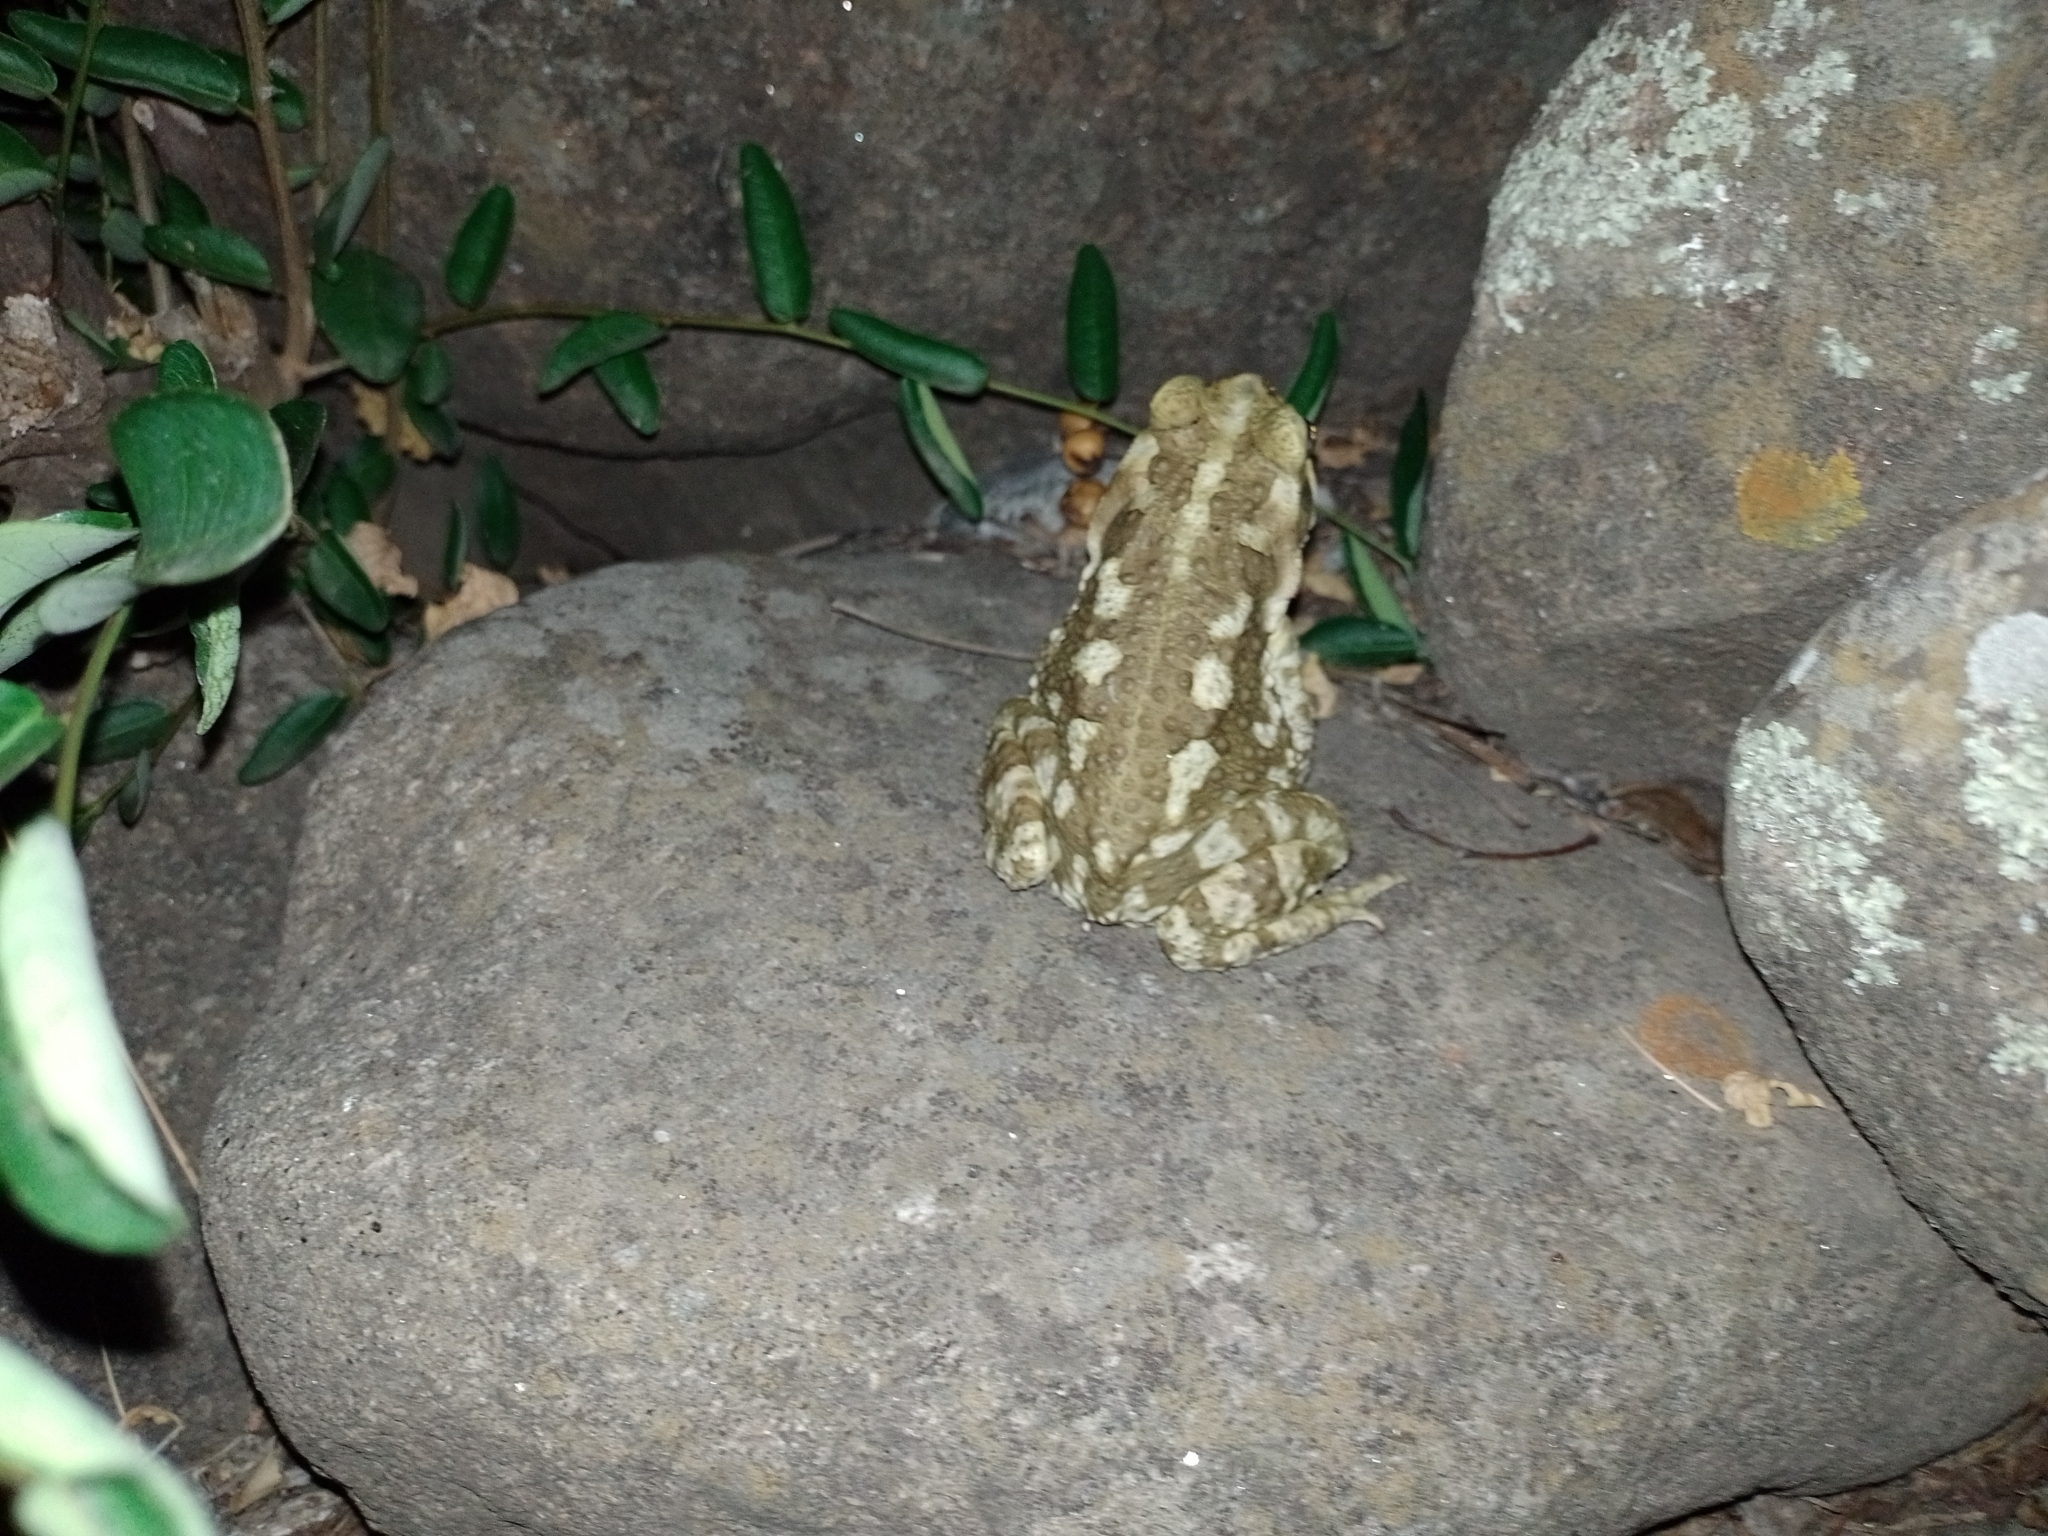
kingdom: Animalia
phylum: Chordata
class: Amphibia
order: Anura
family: Bufonidae
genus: Rhinella
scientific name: Rhinella arenarum
